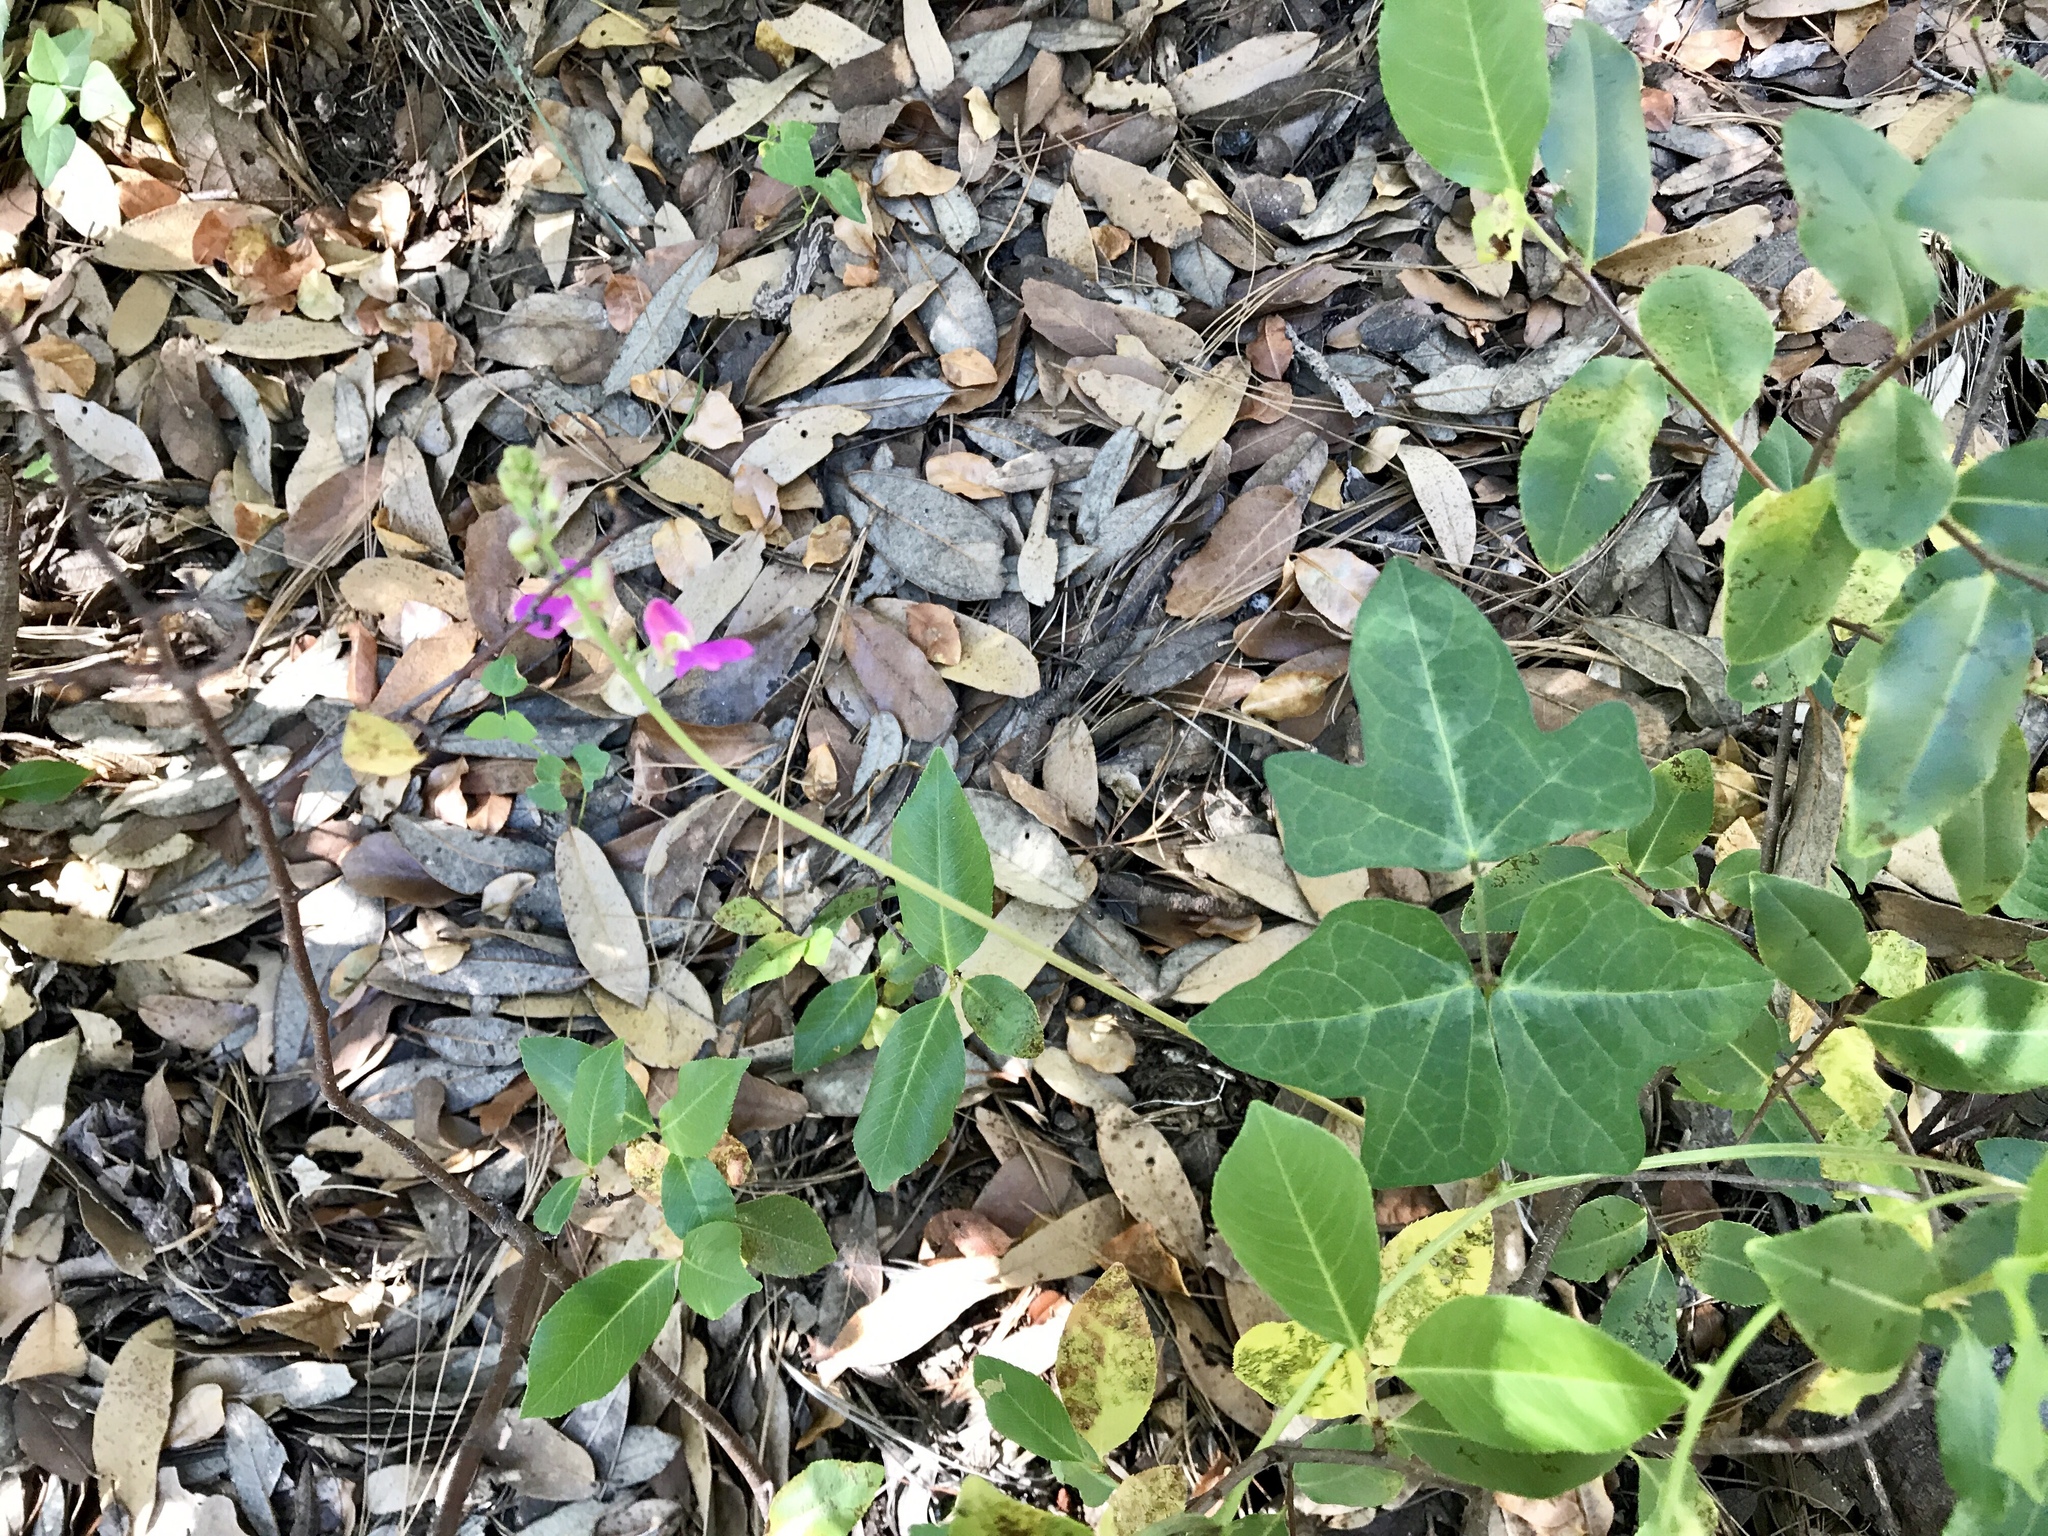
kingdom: Plantae
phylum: Tracheophyta
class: Magnoliopsida
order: Fabales
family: Fabaceae
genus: Phaseolus
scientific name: Phaseolus pedicellatus
